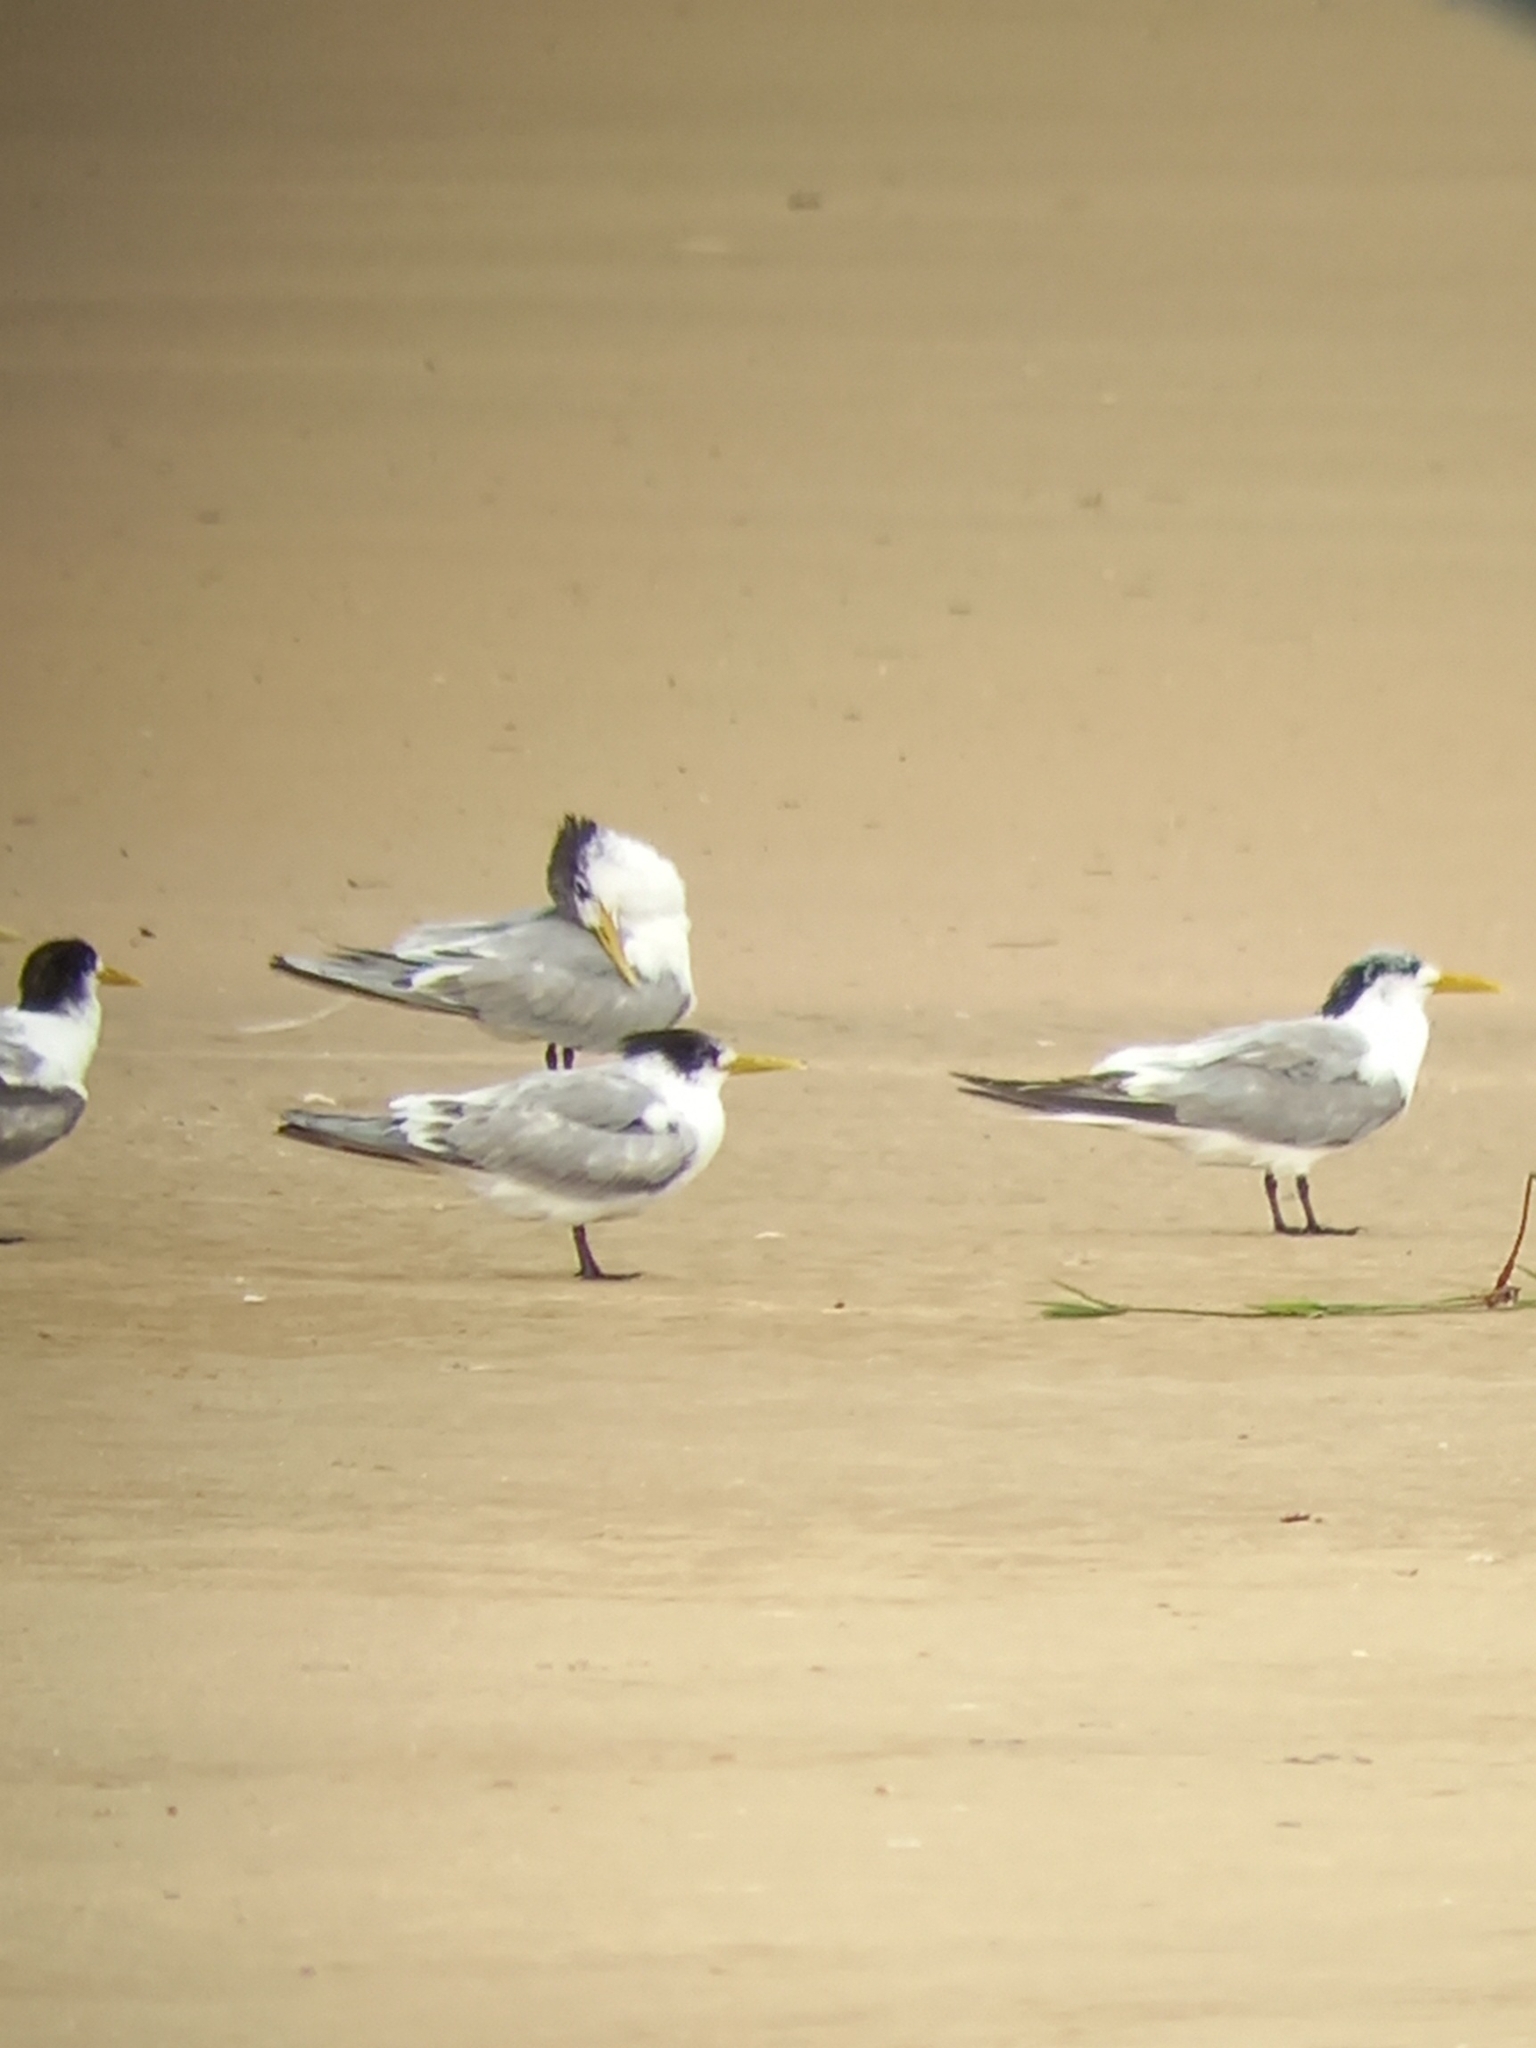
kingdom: Animalia
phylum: Chordata
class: Aves
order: Charadriiformes
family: Laridae
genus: Thalasseus
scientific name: Thalasseus bergii
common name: Greater crested tern
